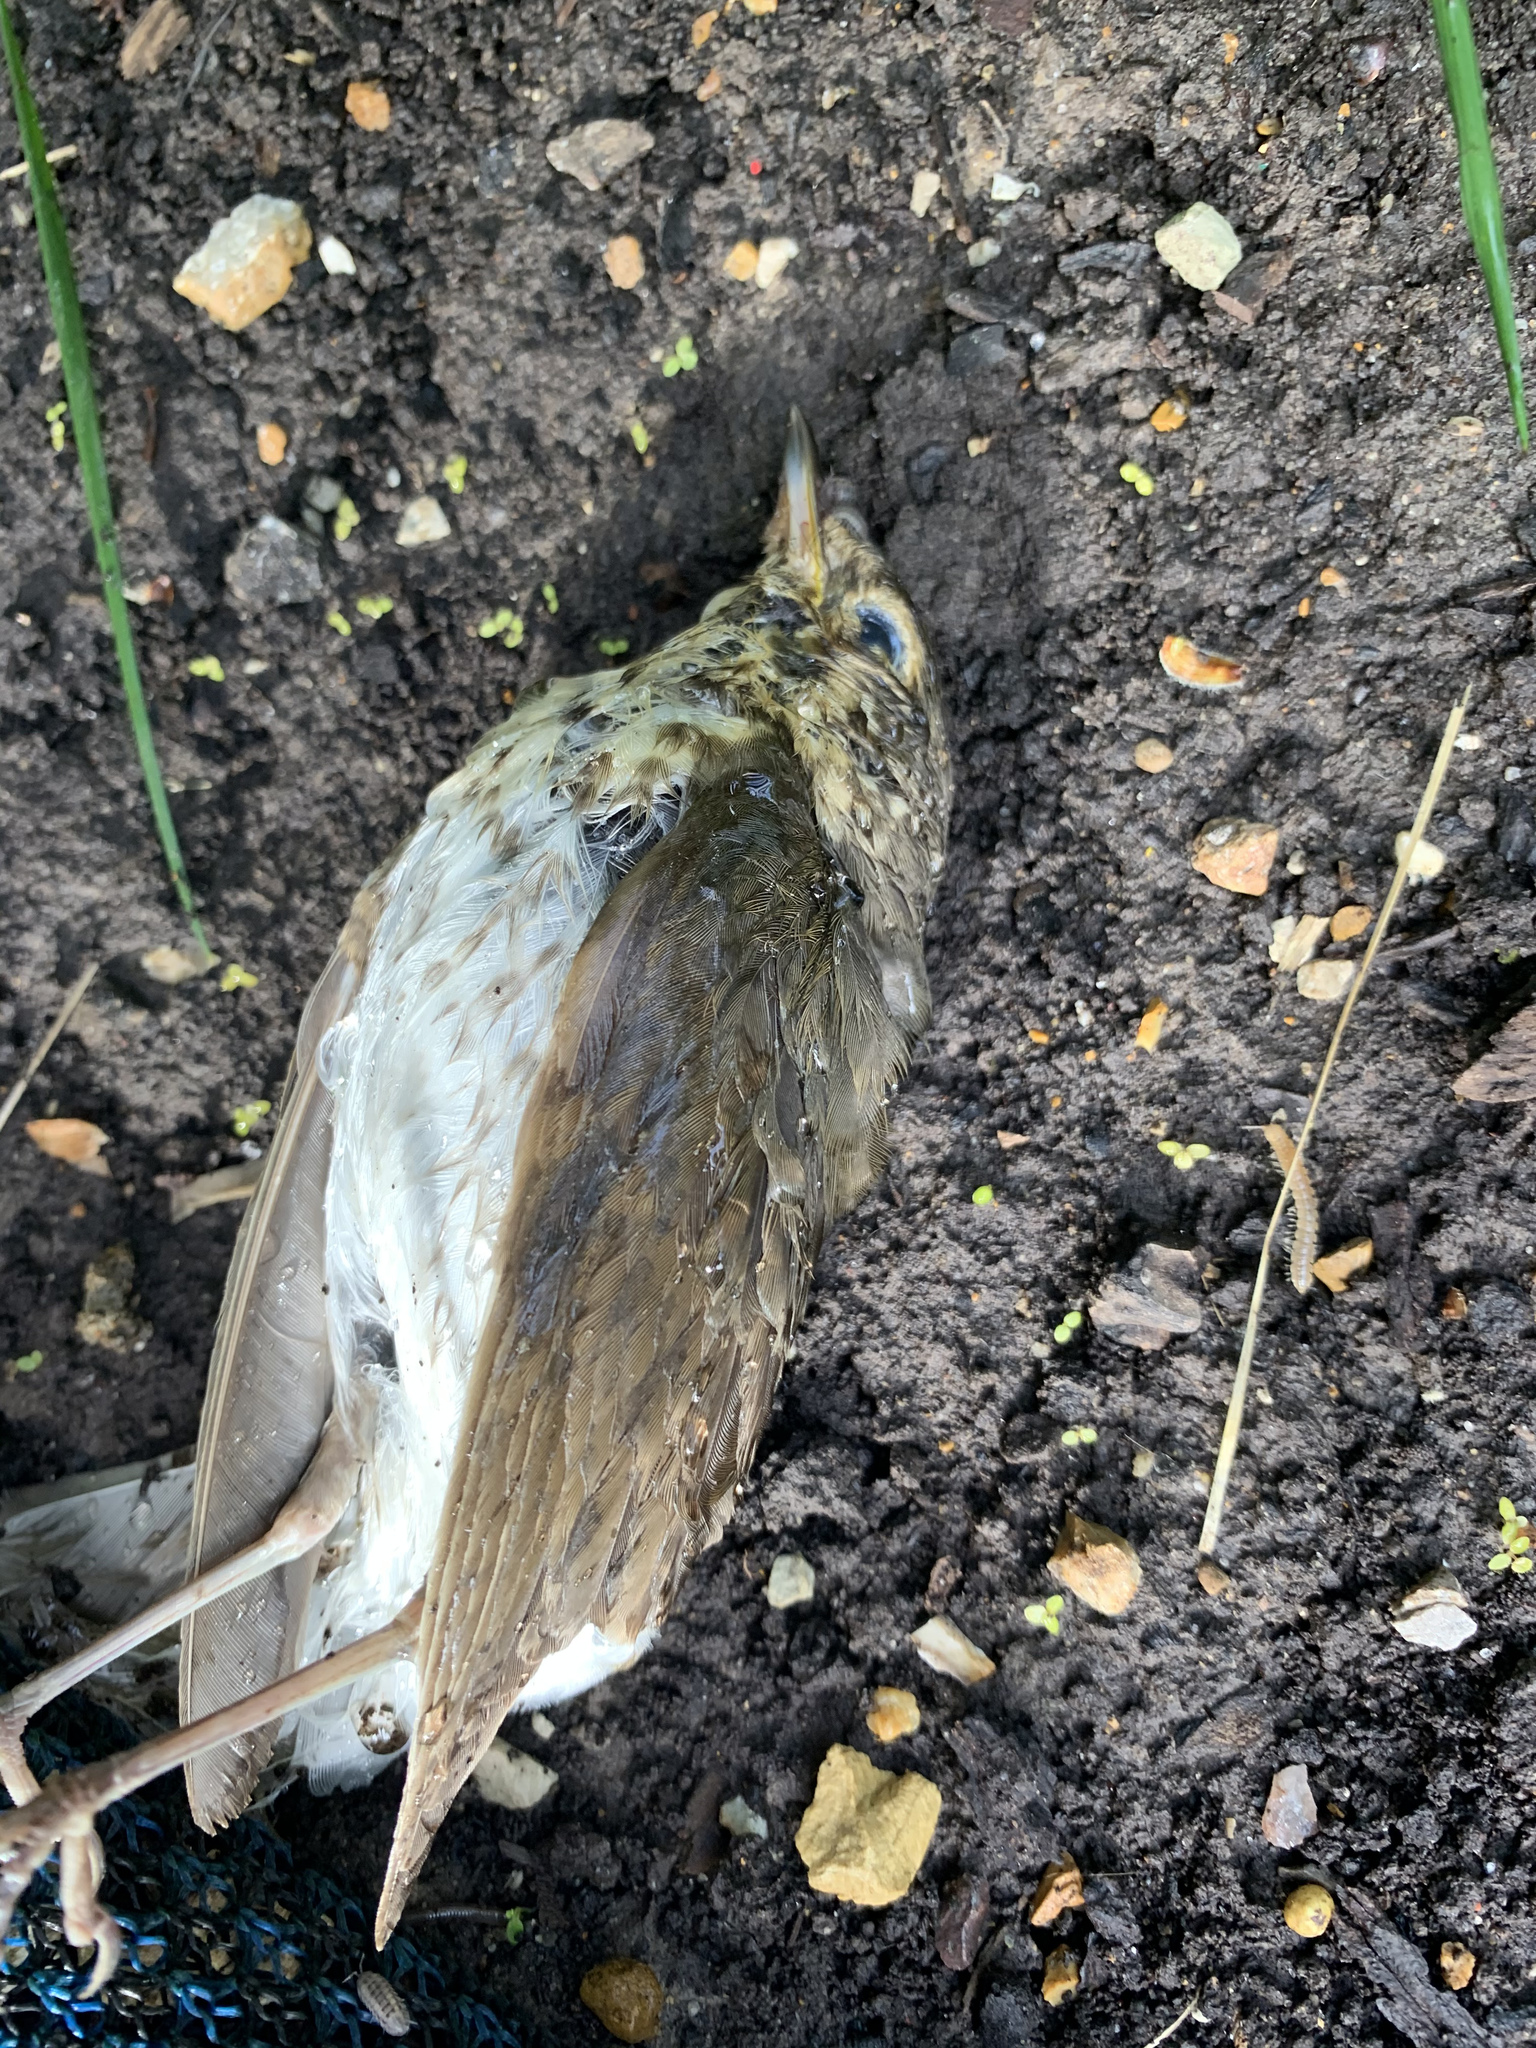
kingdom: Animalia
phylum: Chordata
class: Aves
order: Passeriformes
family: Turdidae
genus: Catharus
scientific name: Catharus ustulatus
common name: Swainson's thrush
